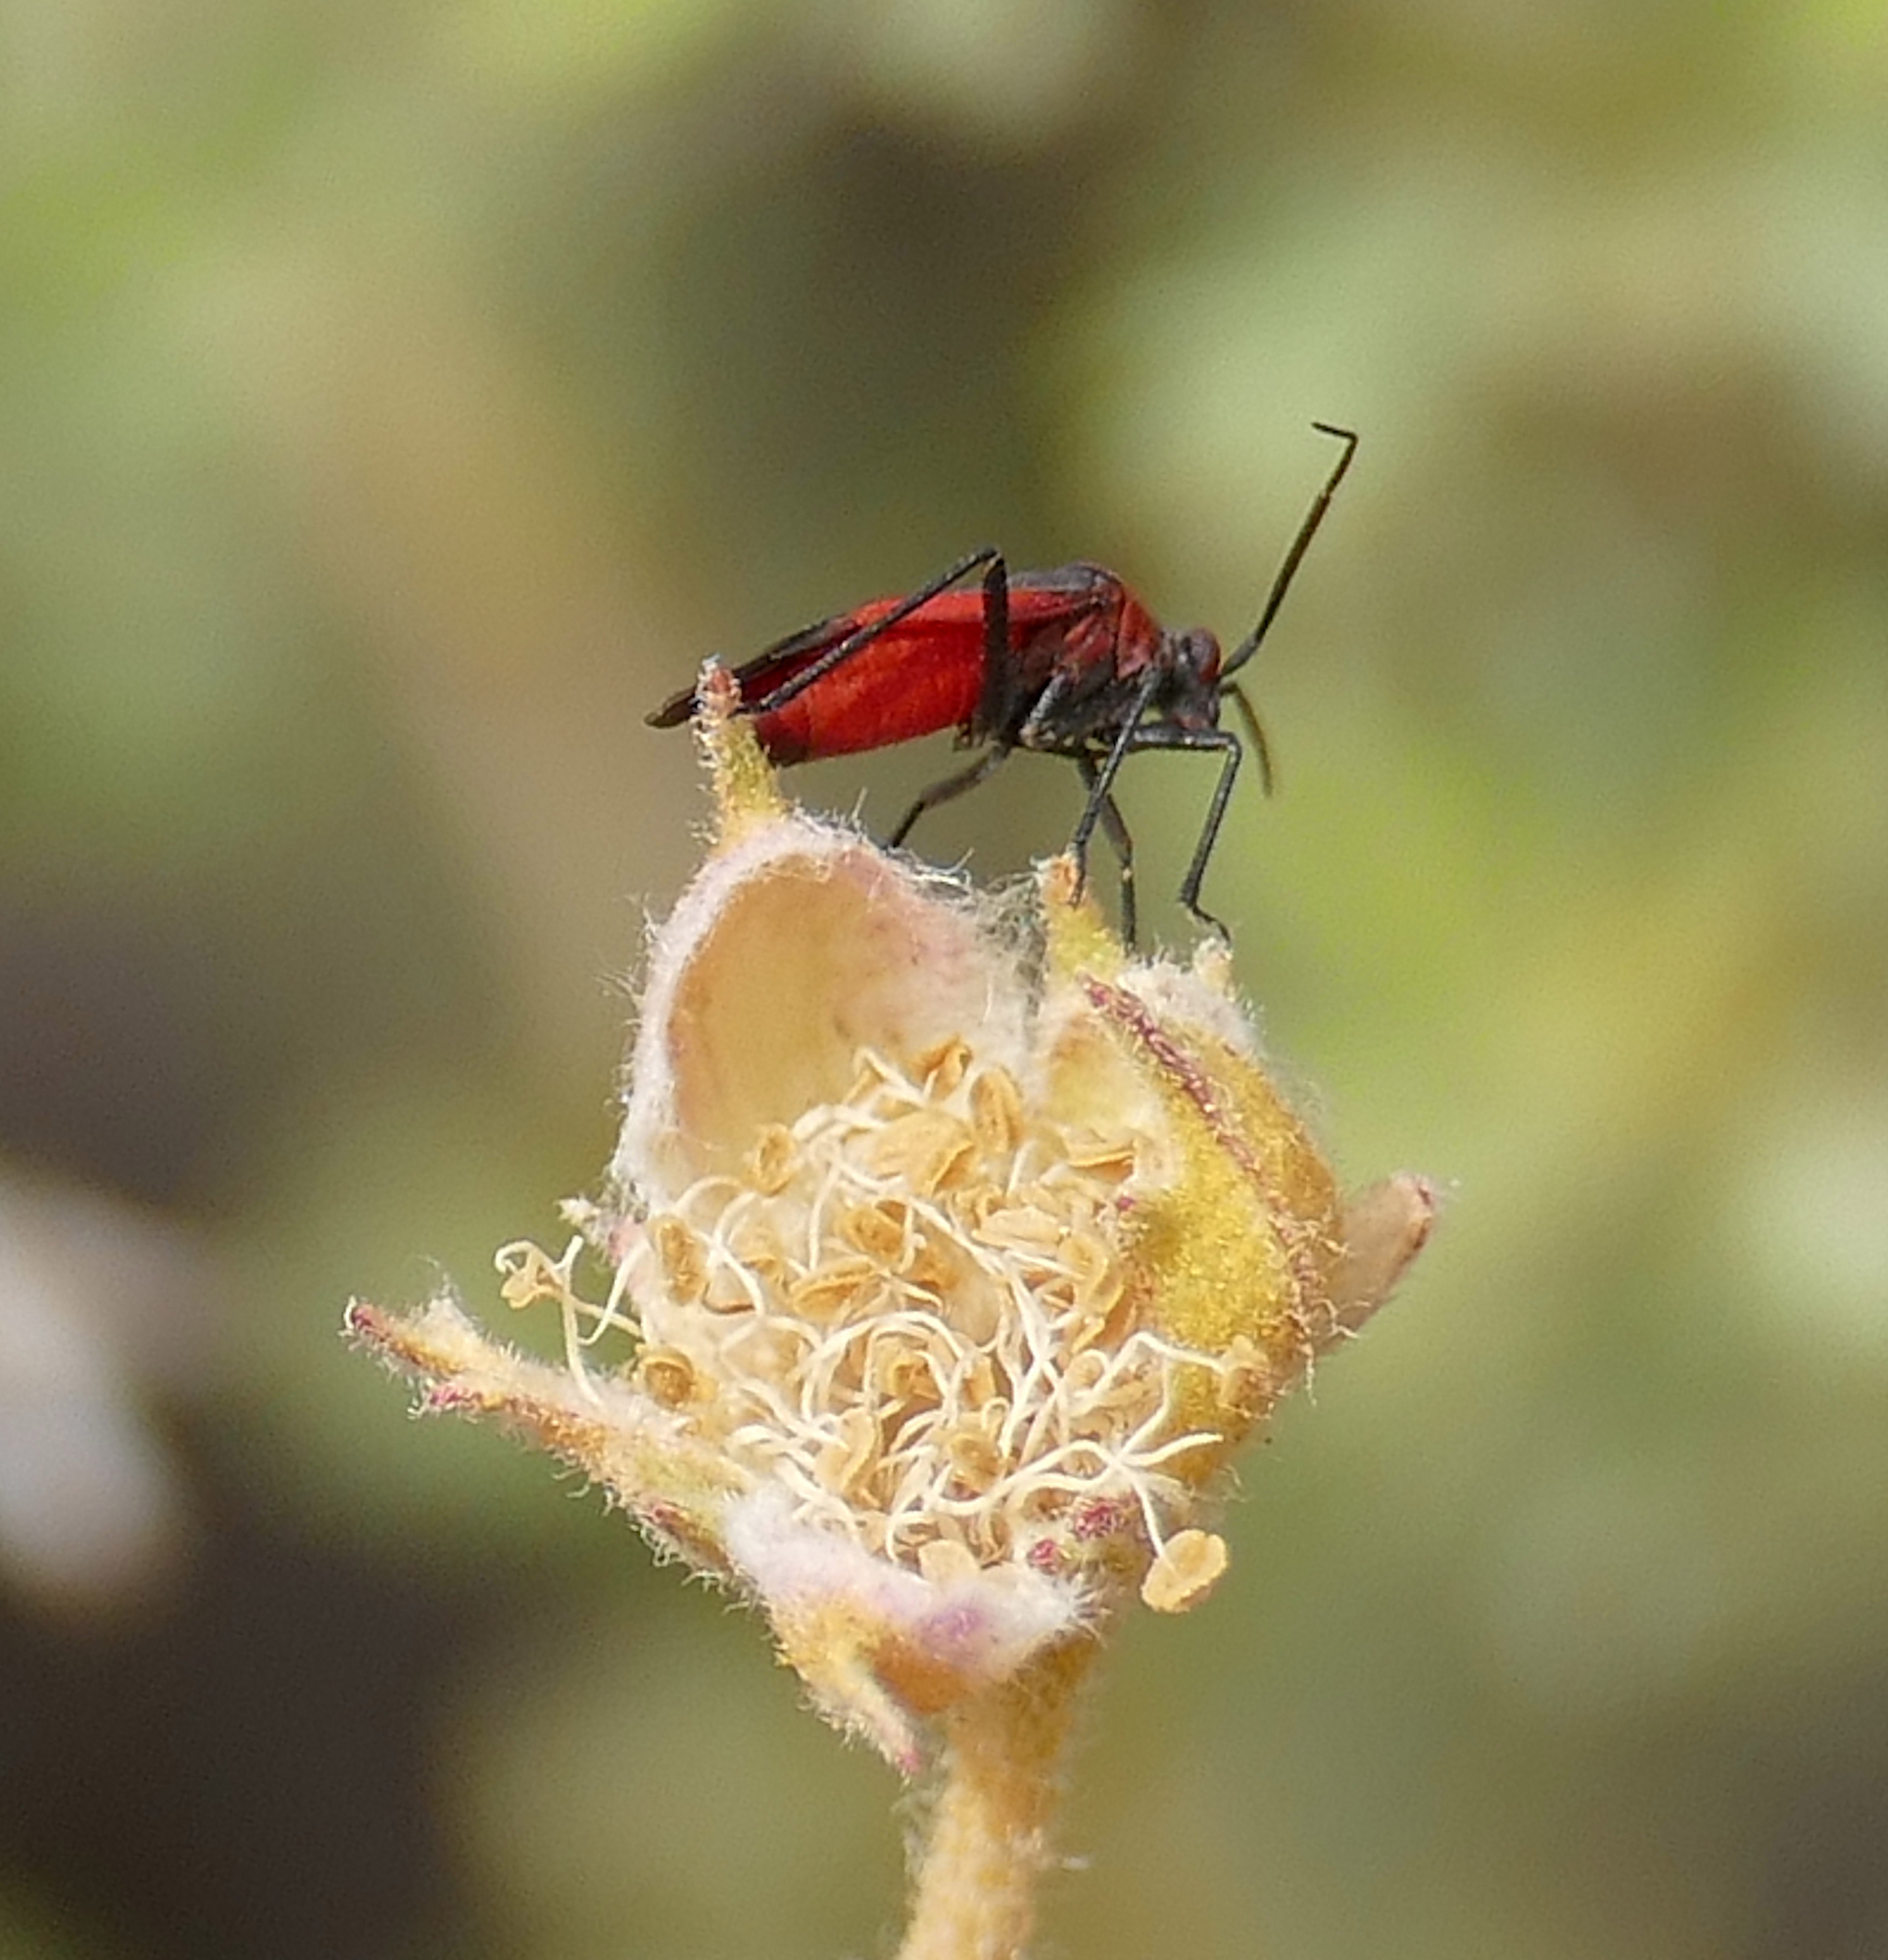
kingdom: Animalia
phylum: Arthropoda
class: Insecta
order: Hemiptera
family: Miridae
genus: Oncerometopus
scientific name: Oncerometopus atriscutis
